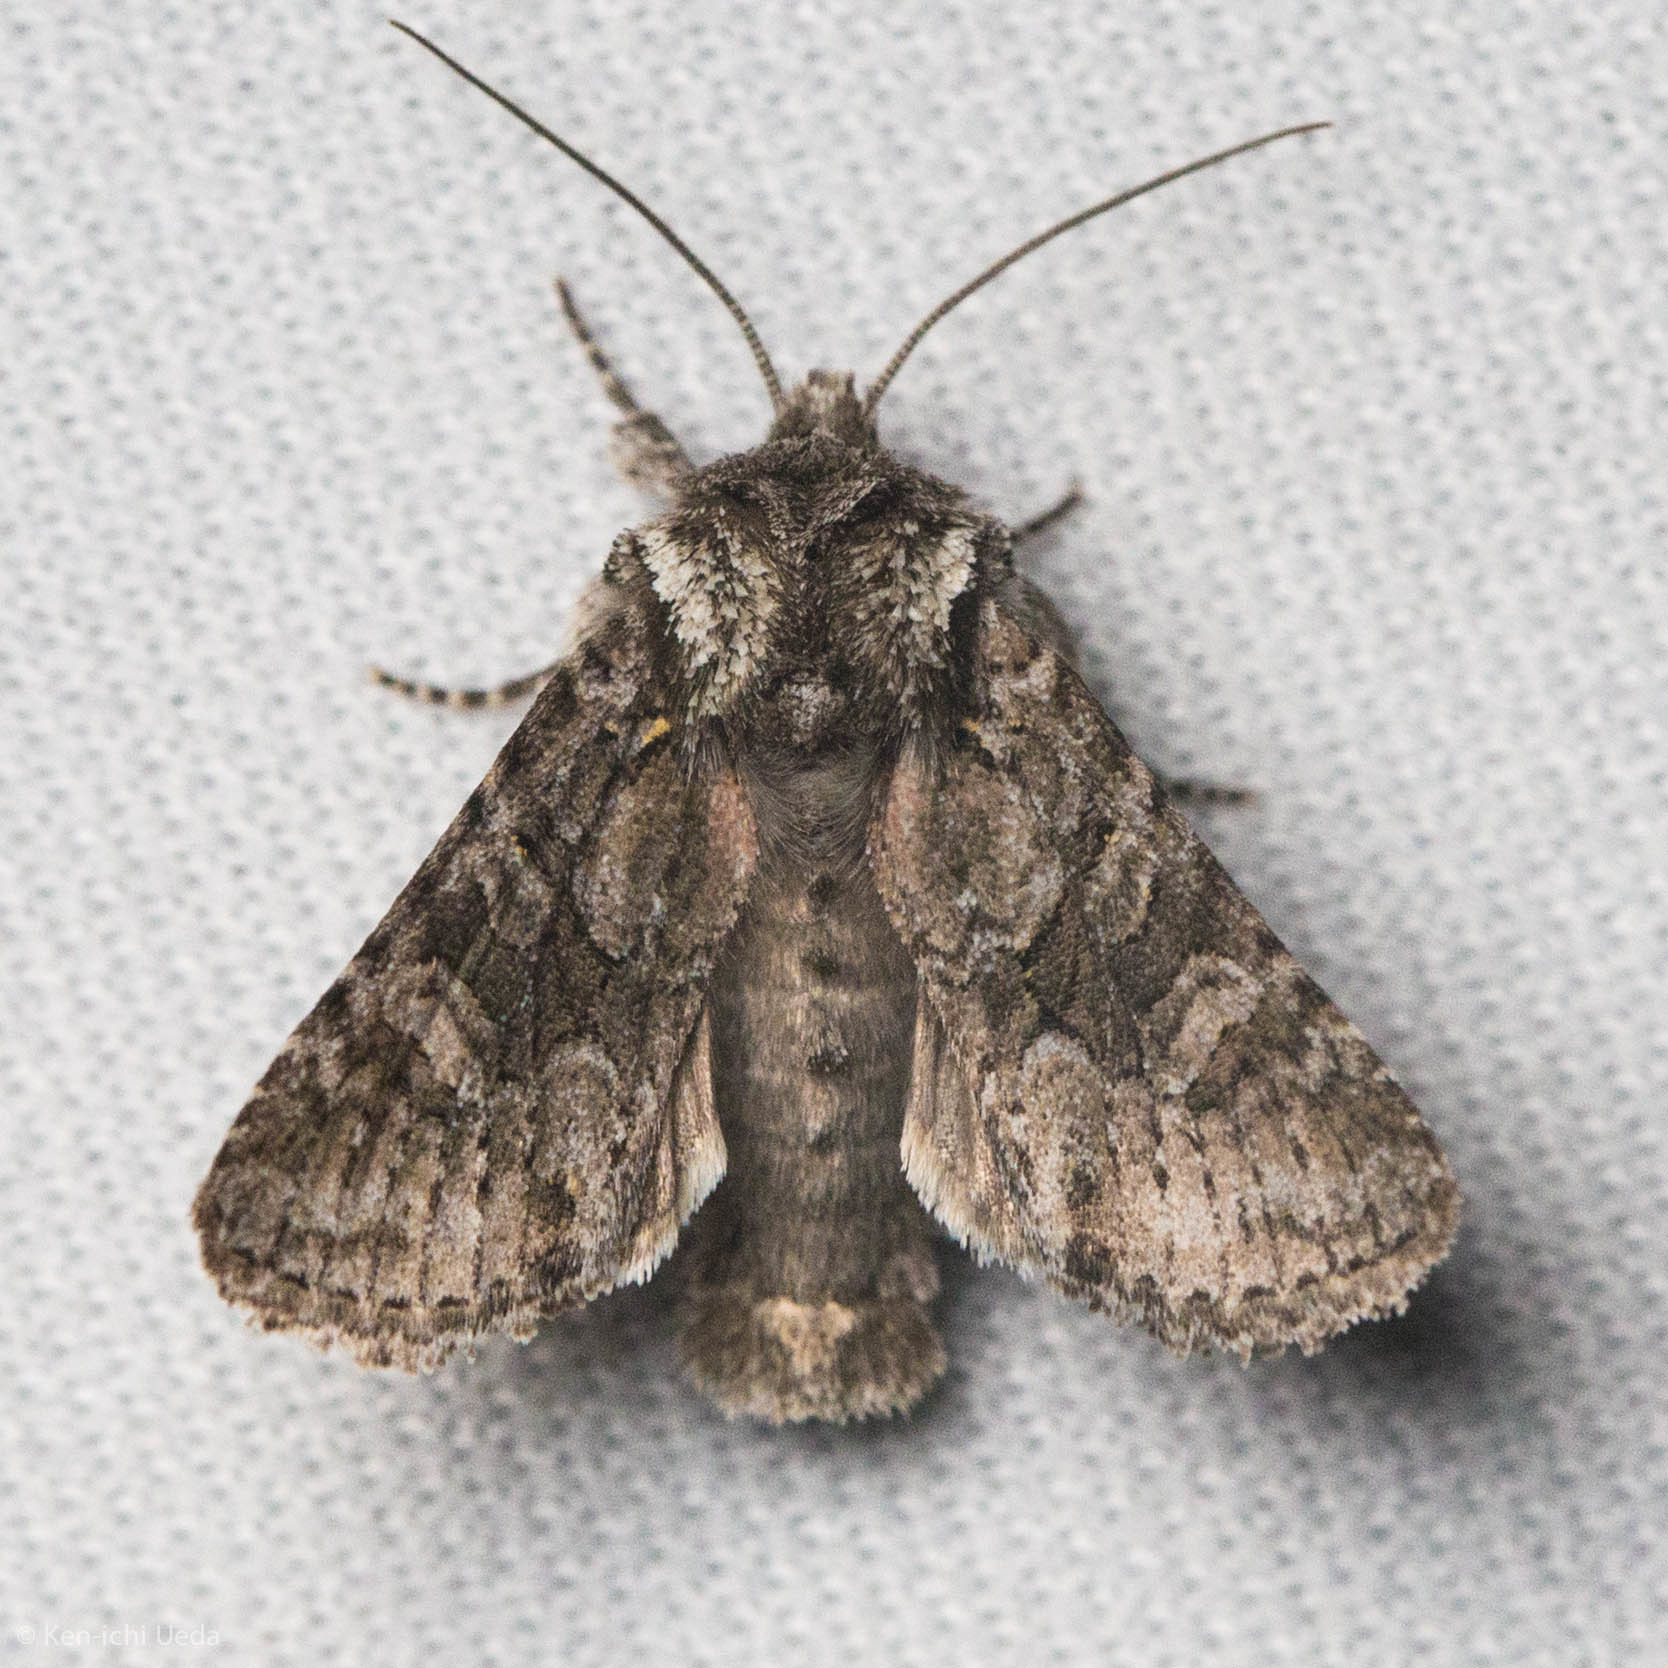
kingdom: Animalia
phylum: Arthropoda
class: Insecta
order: Lepidoptera
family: Noctuidae
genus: Lacinipolia
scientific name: Lacinipolia cuneata
